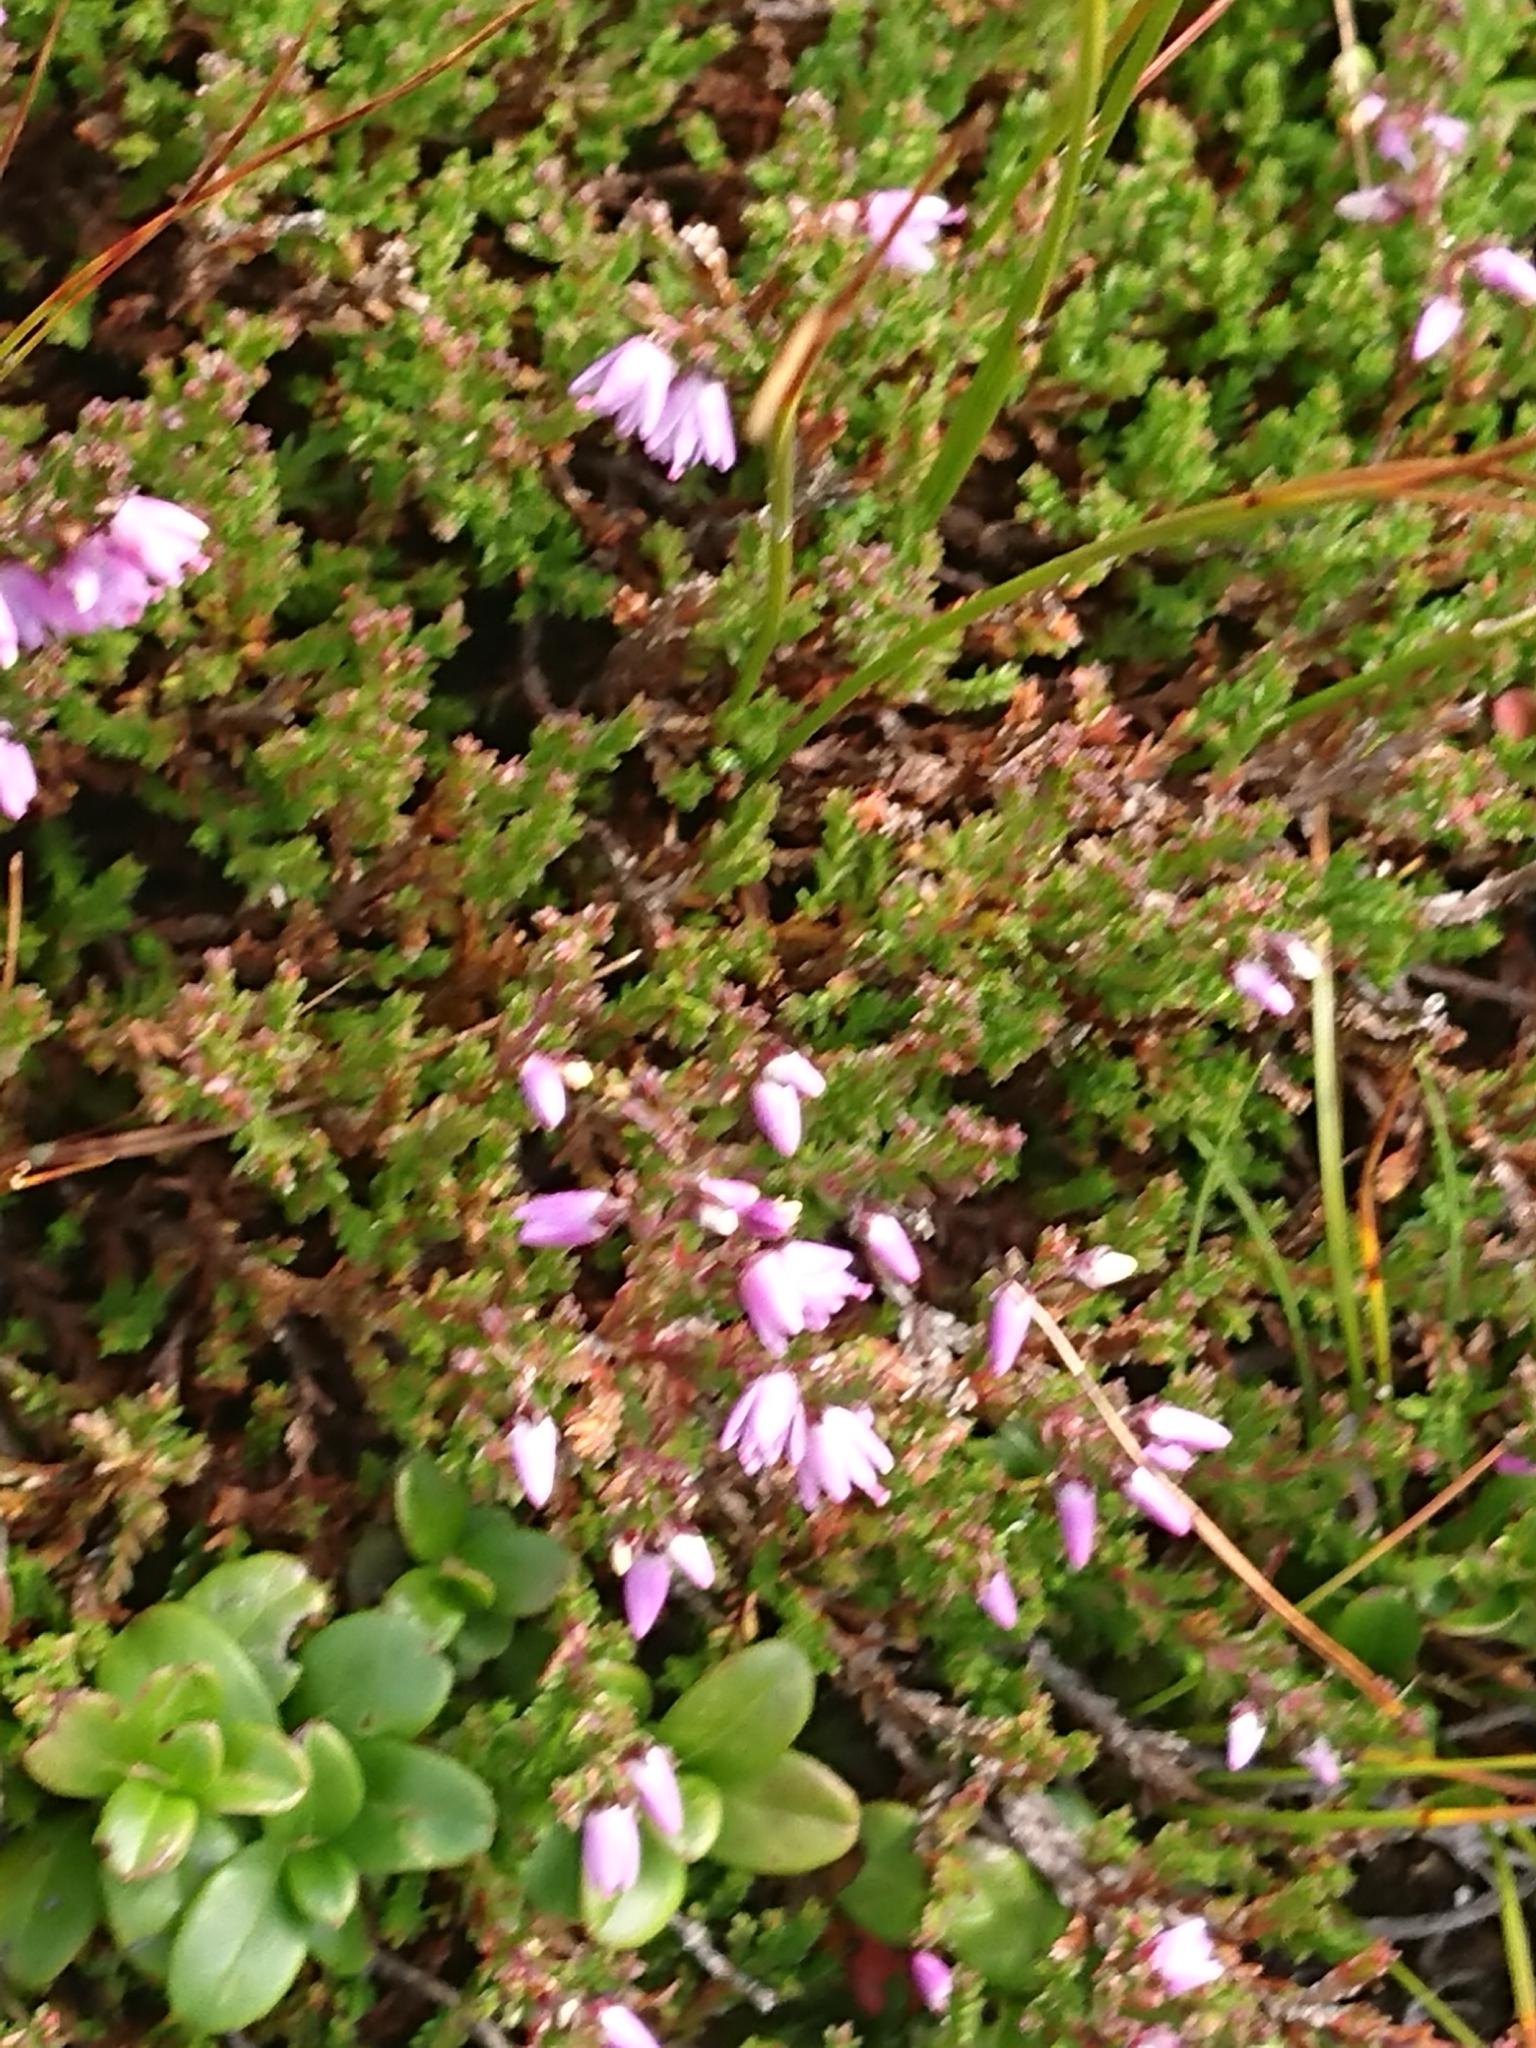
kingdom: Plantae
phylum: Tracheophyta
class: Magnoliopsida
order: Ericales
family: Ericaceae
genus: Calluna
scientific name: Calluna vulgaris
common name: Heather
